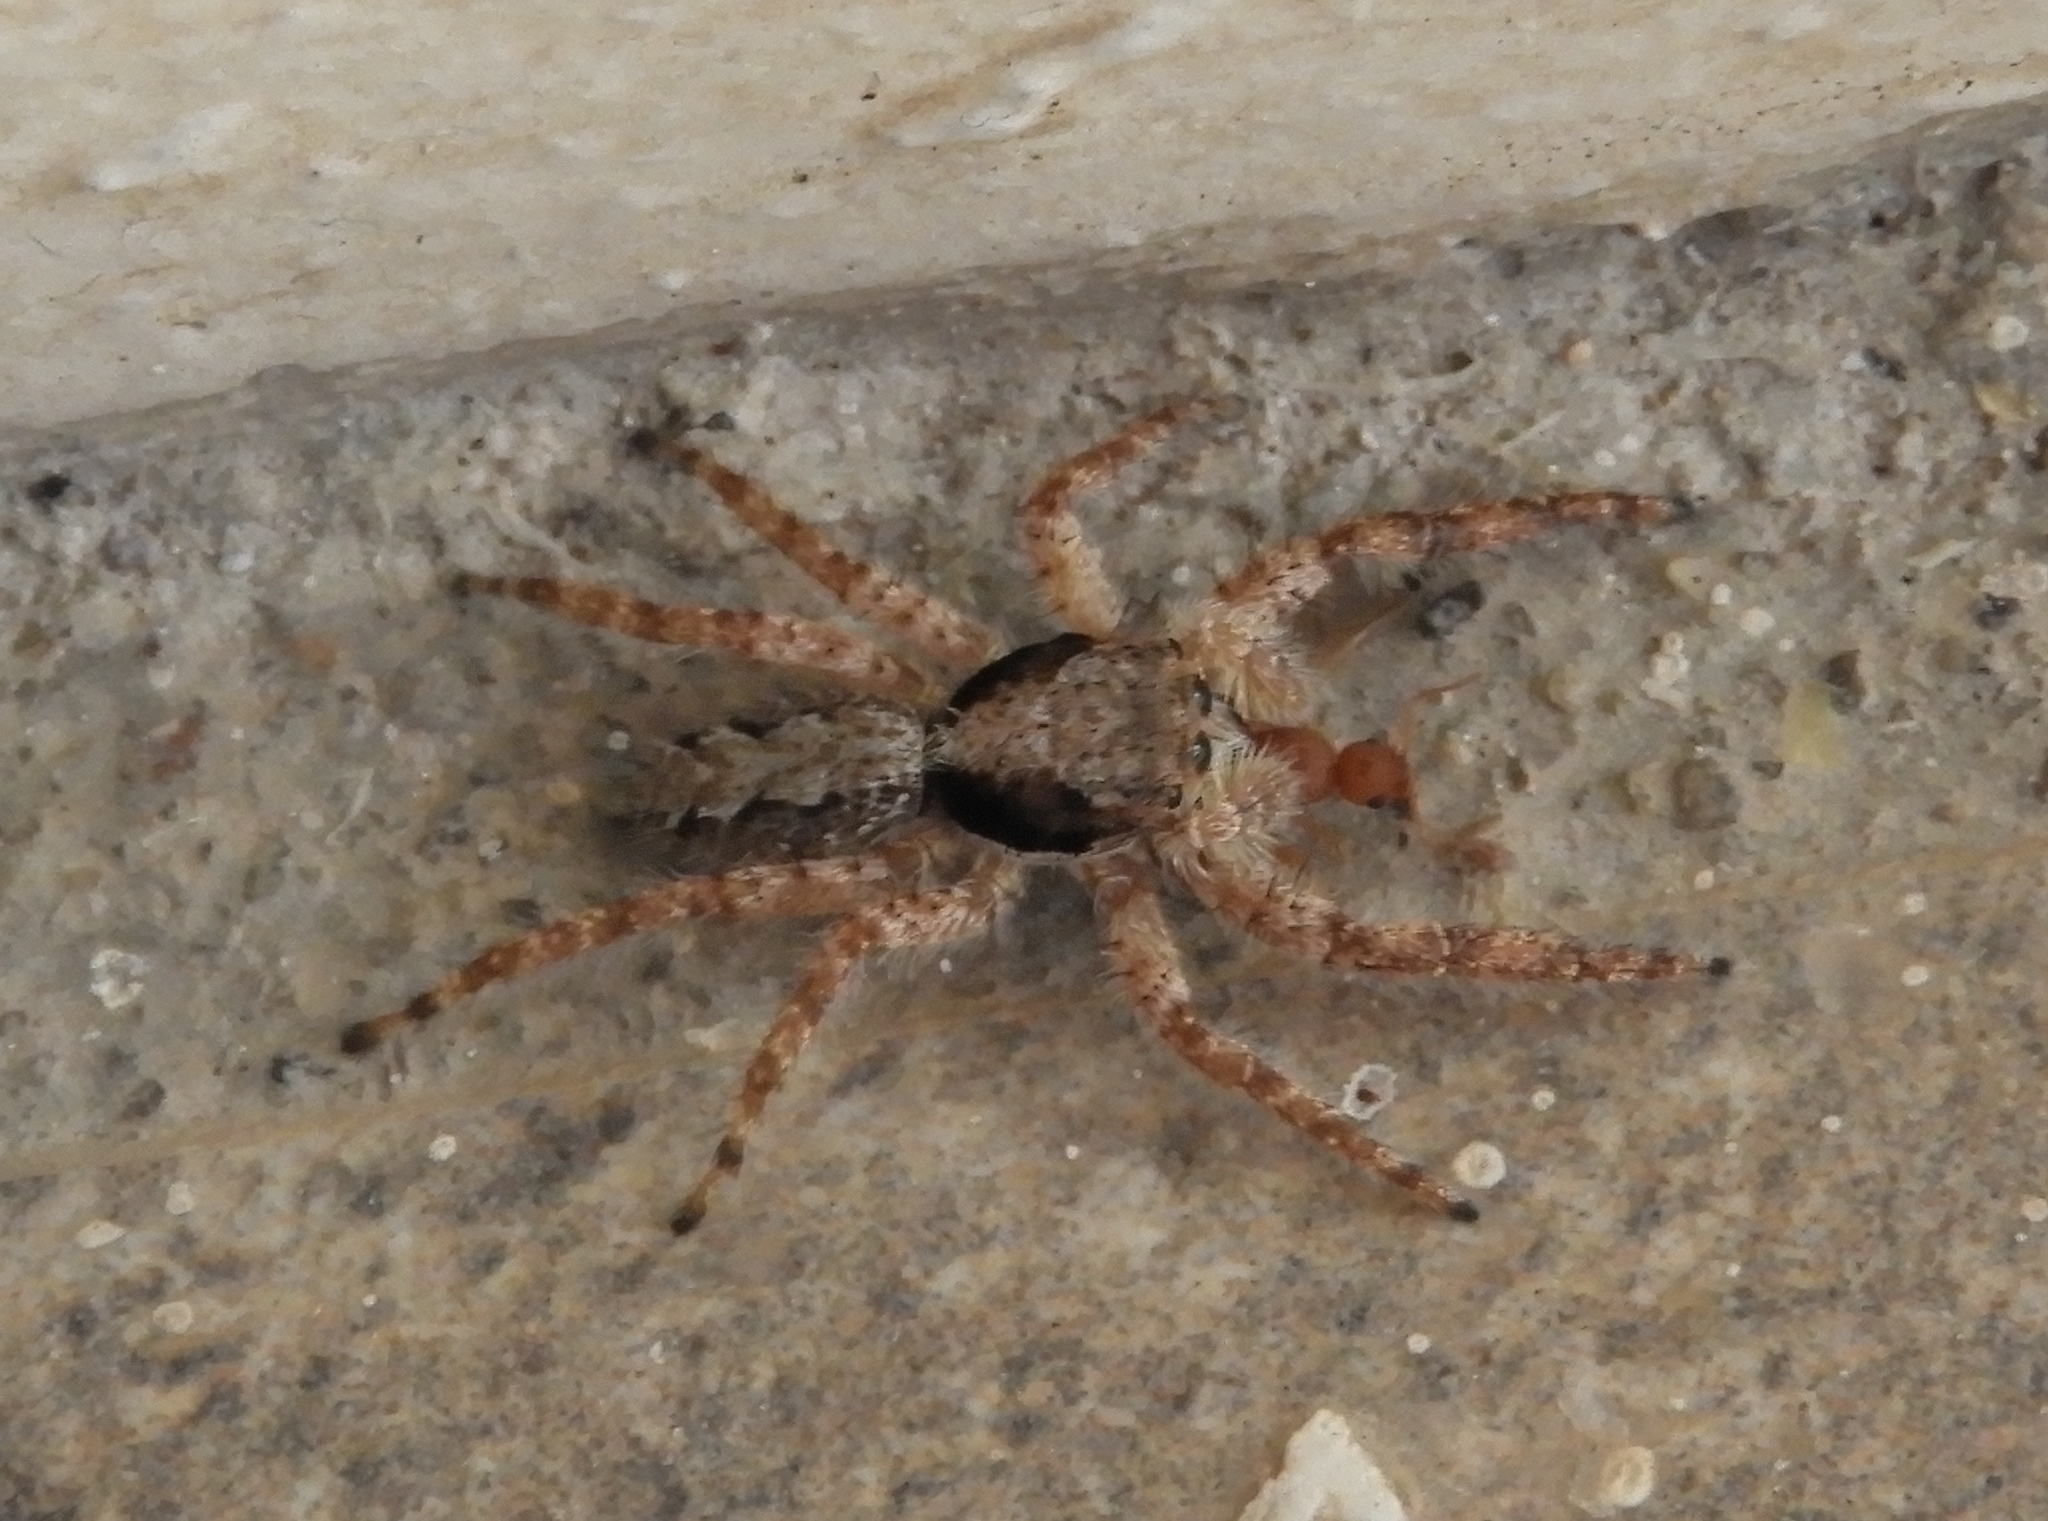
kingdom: Animalia
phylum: Arthropoda
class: Arachnida
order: Araneae
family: Salticidae
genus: Balmaceda
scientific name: Balmaceda
